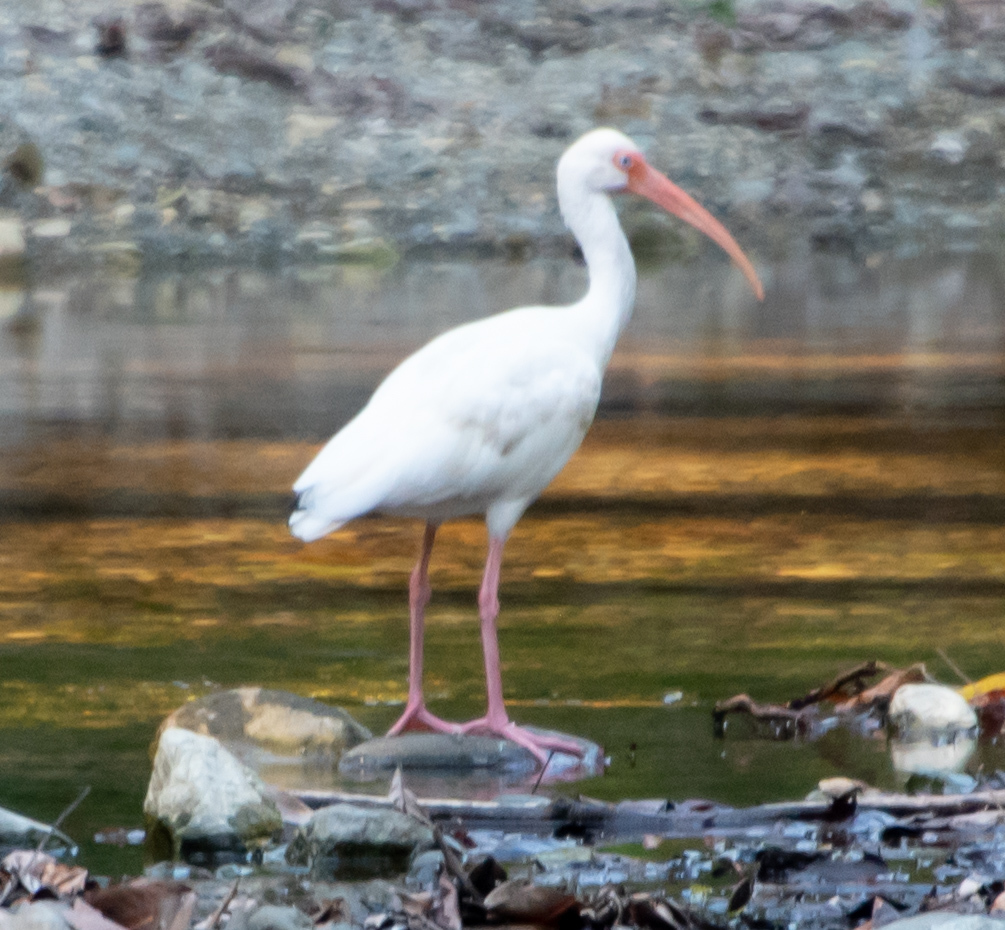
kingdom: Animalia
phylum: Chordata
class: Aves
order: Pelecaniformes
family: Threskiornithidae
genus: Eudocimus
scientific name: Eudocimus albus
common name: White ibis
